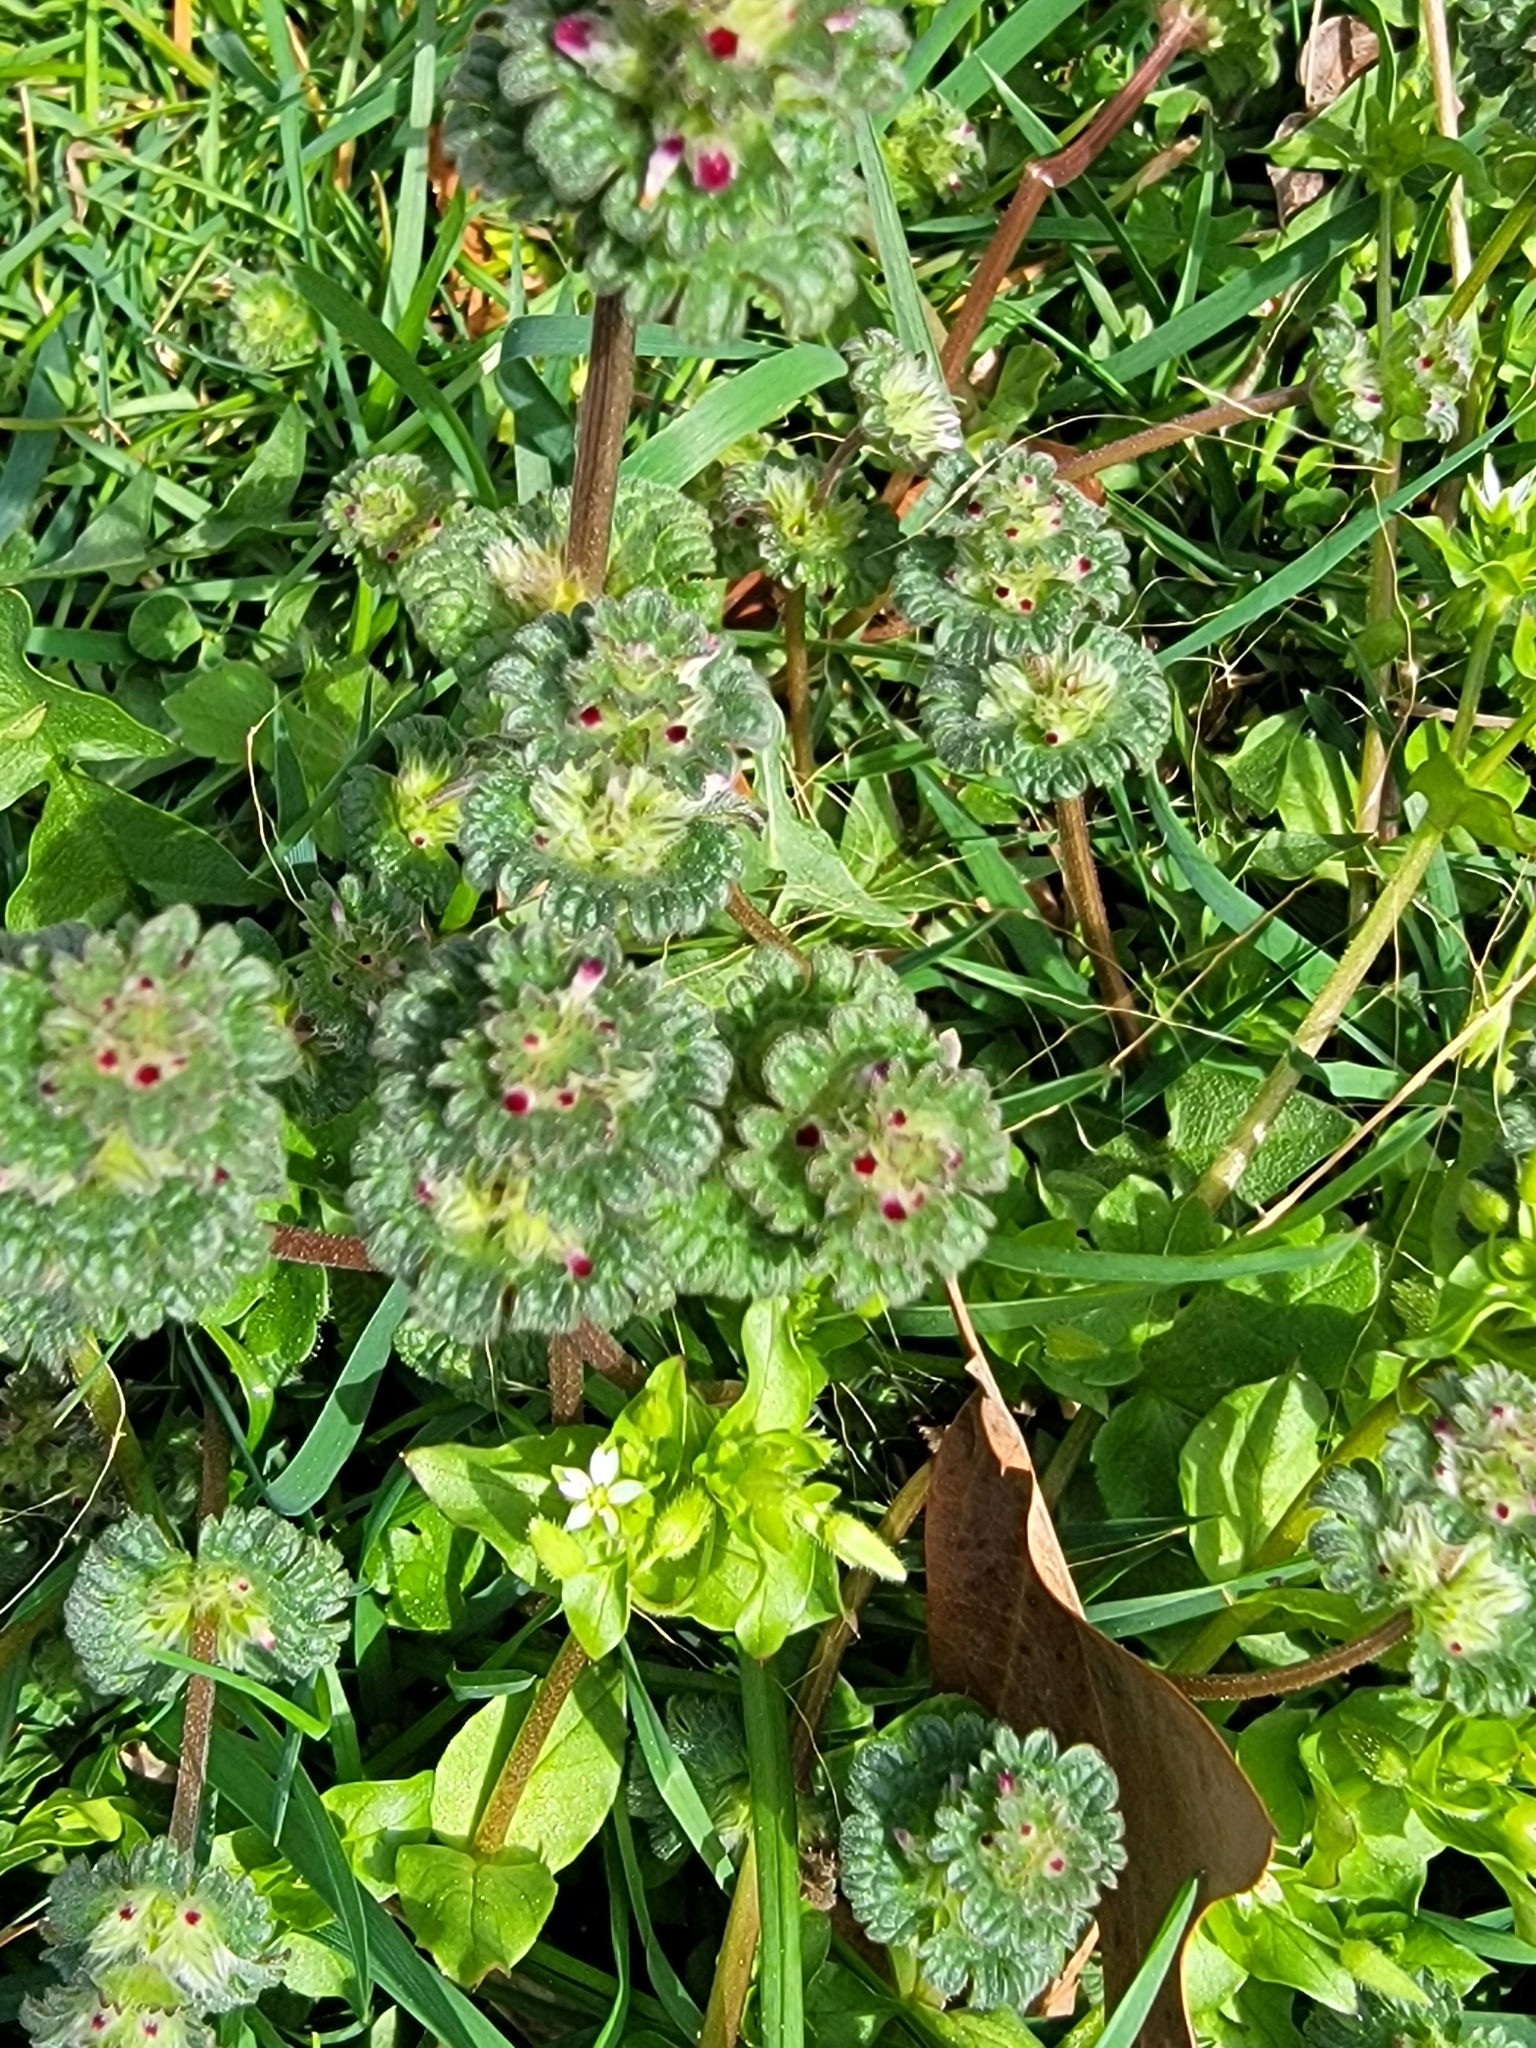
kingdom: Plantae
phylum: Tracheophyta
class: Magnoliopsida
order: Lamiales
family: Lamiaceae
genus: Lamium
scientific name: Lamium amplexicaule
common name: Henbit dead-nettle
